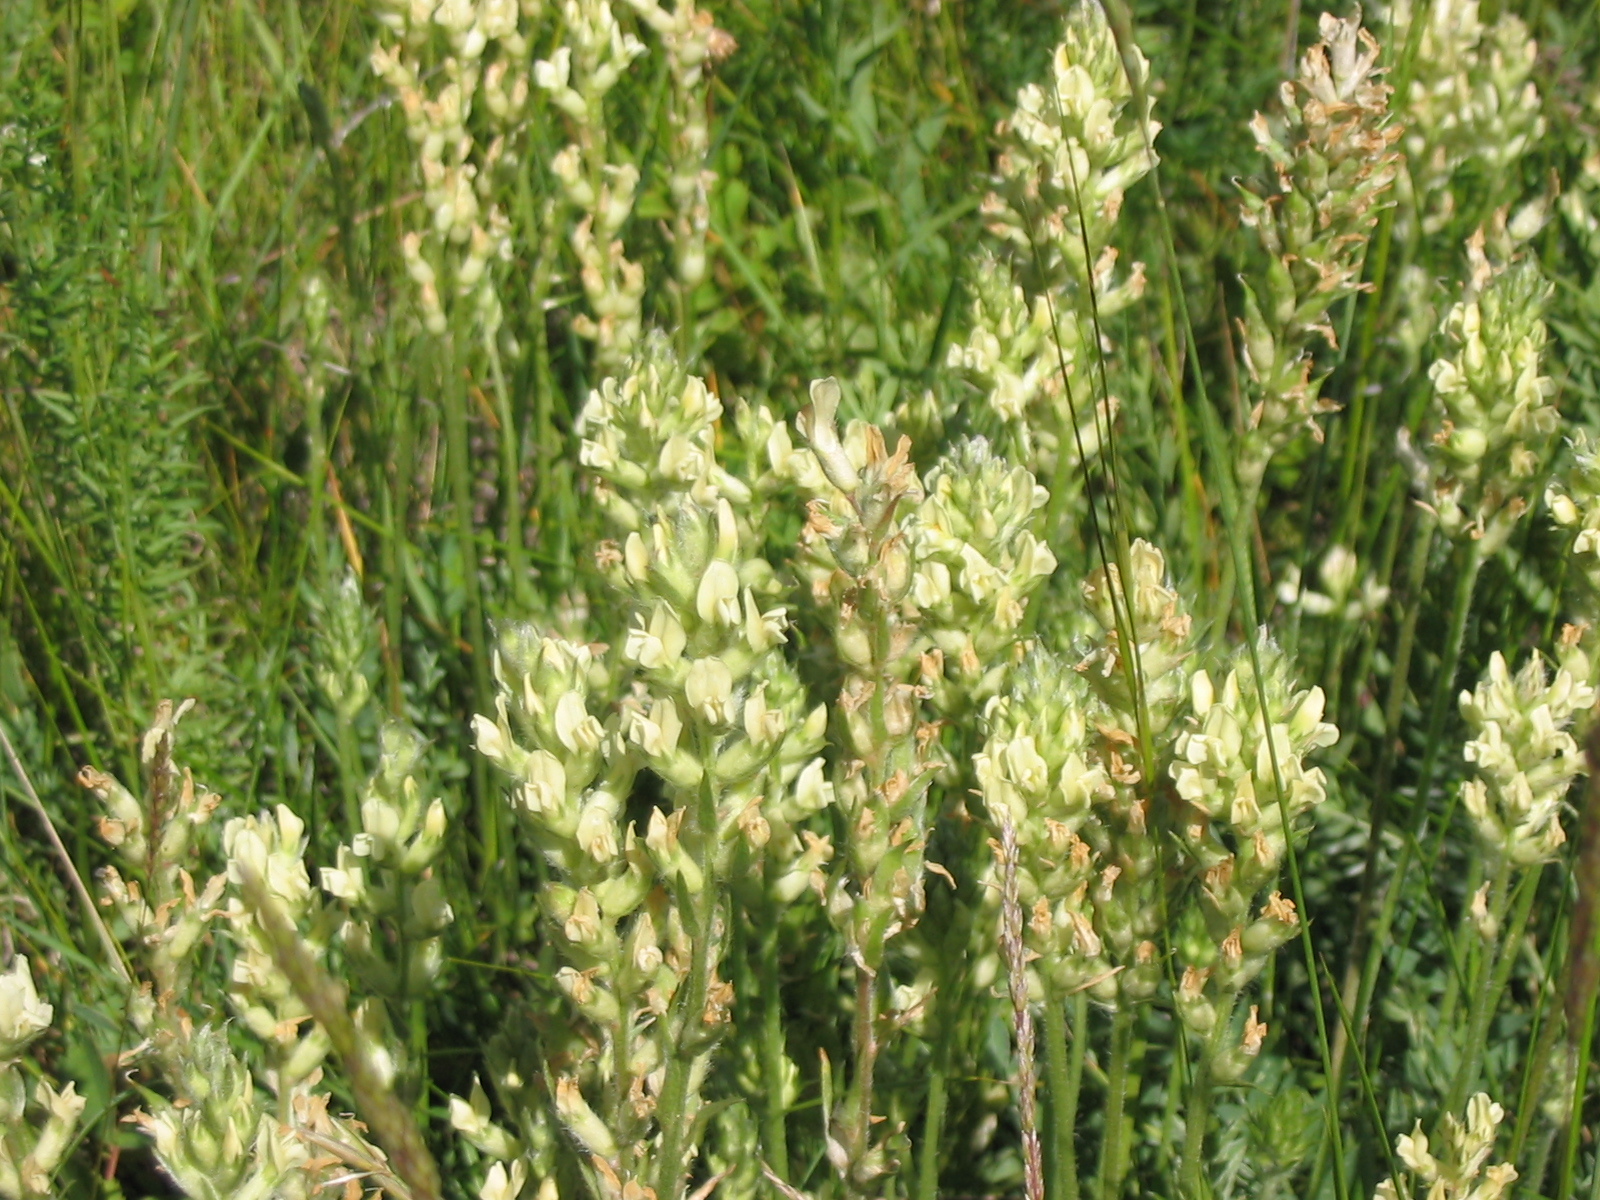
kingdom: Plantae
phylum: Tracheophyta
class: Magnoliopsida
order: Fabales
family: Fabaceae
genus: Oxytropis
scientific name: Oxytropis campestris
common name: Field locoweed
